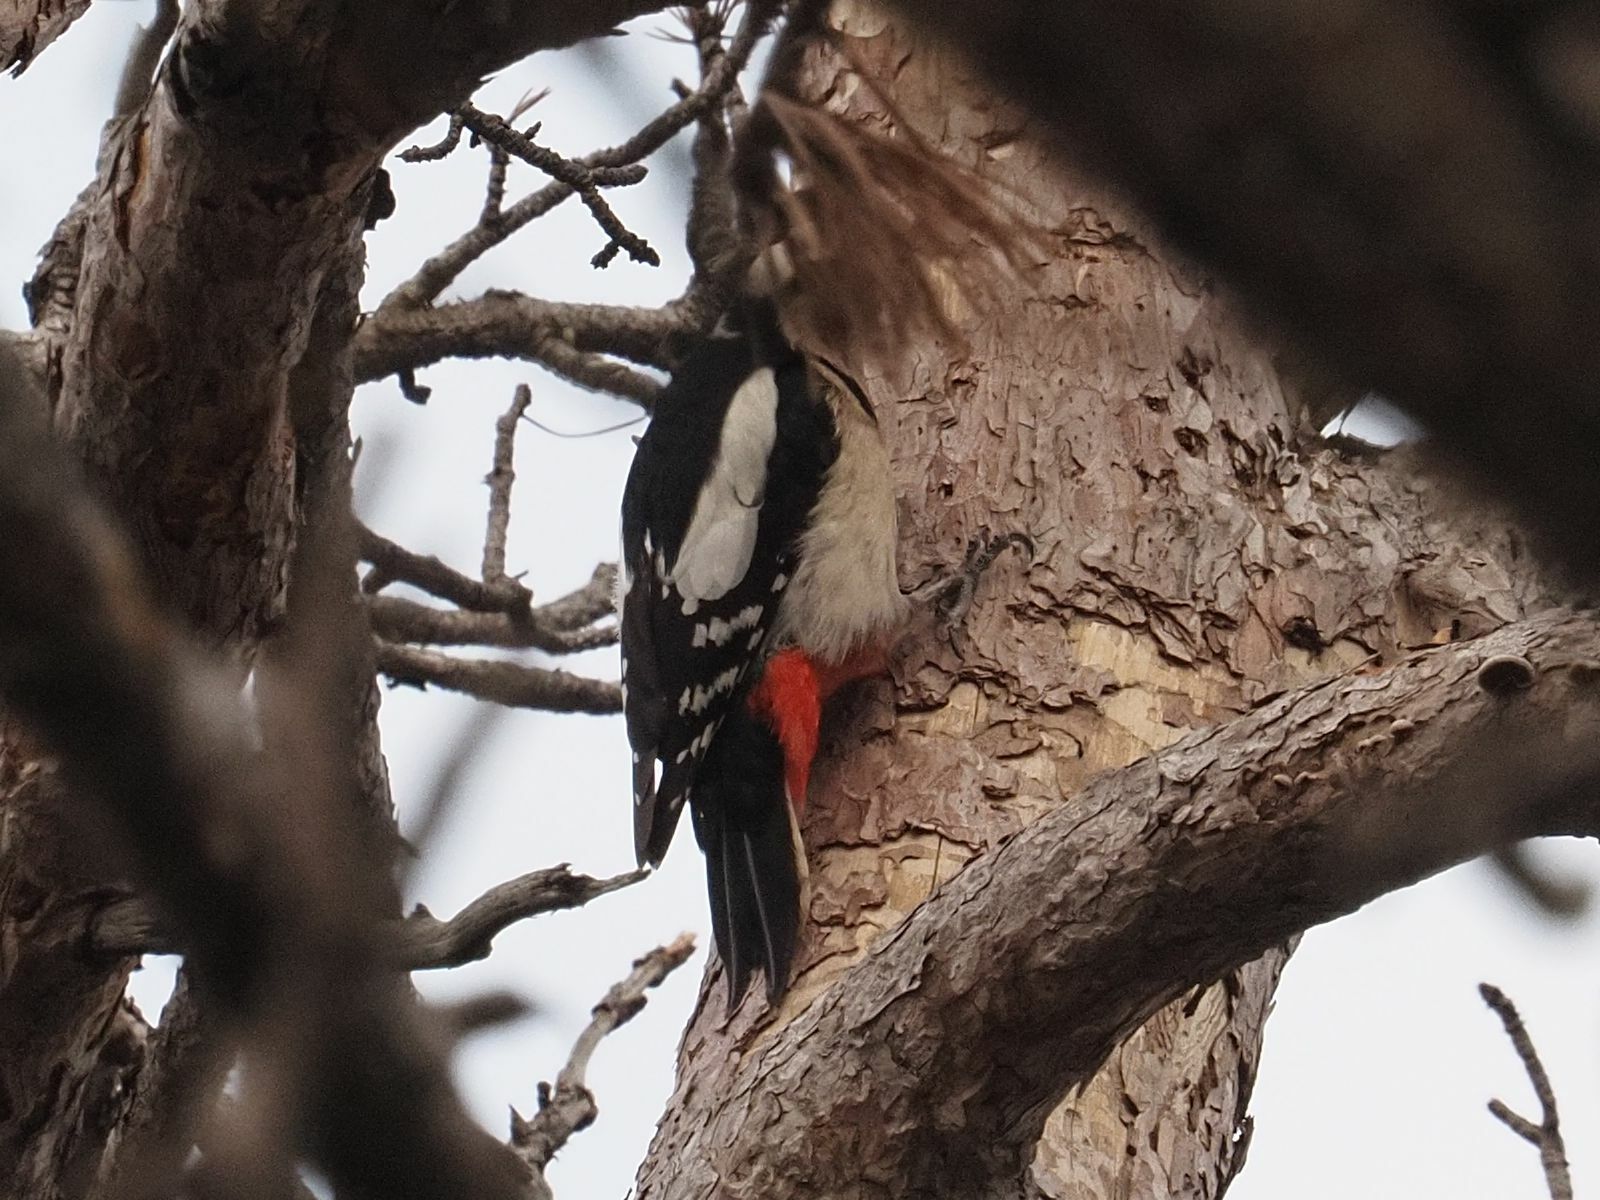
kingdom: Animalia
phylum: Chordata
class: Aves
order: Piciformes
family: Picidae
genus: Dendrocopos
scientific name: Dendrocopos major
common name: Great spotted woodpecker
